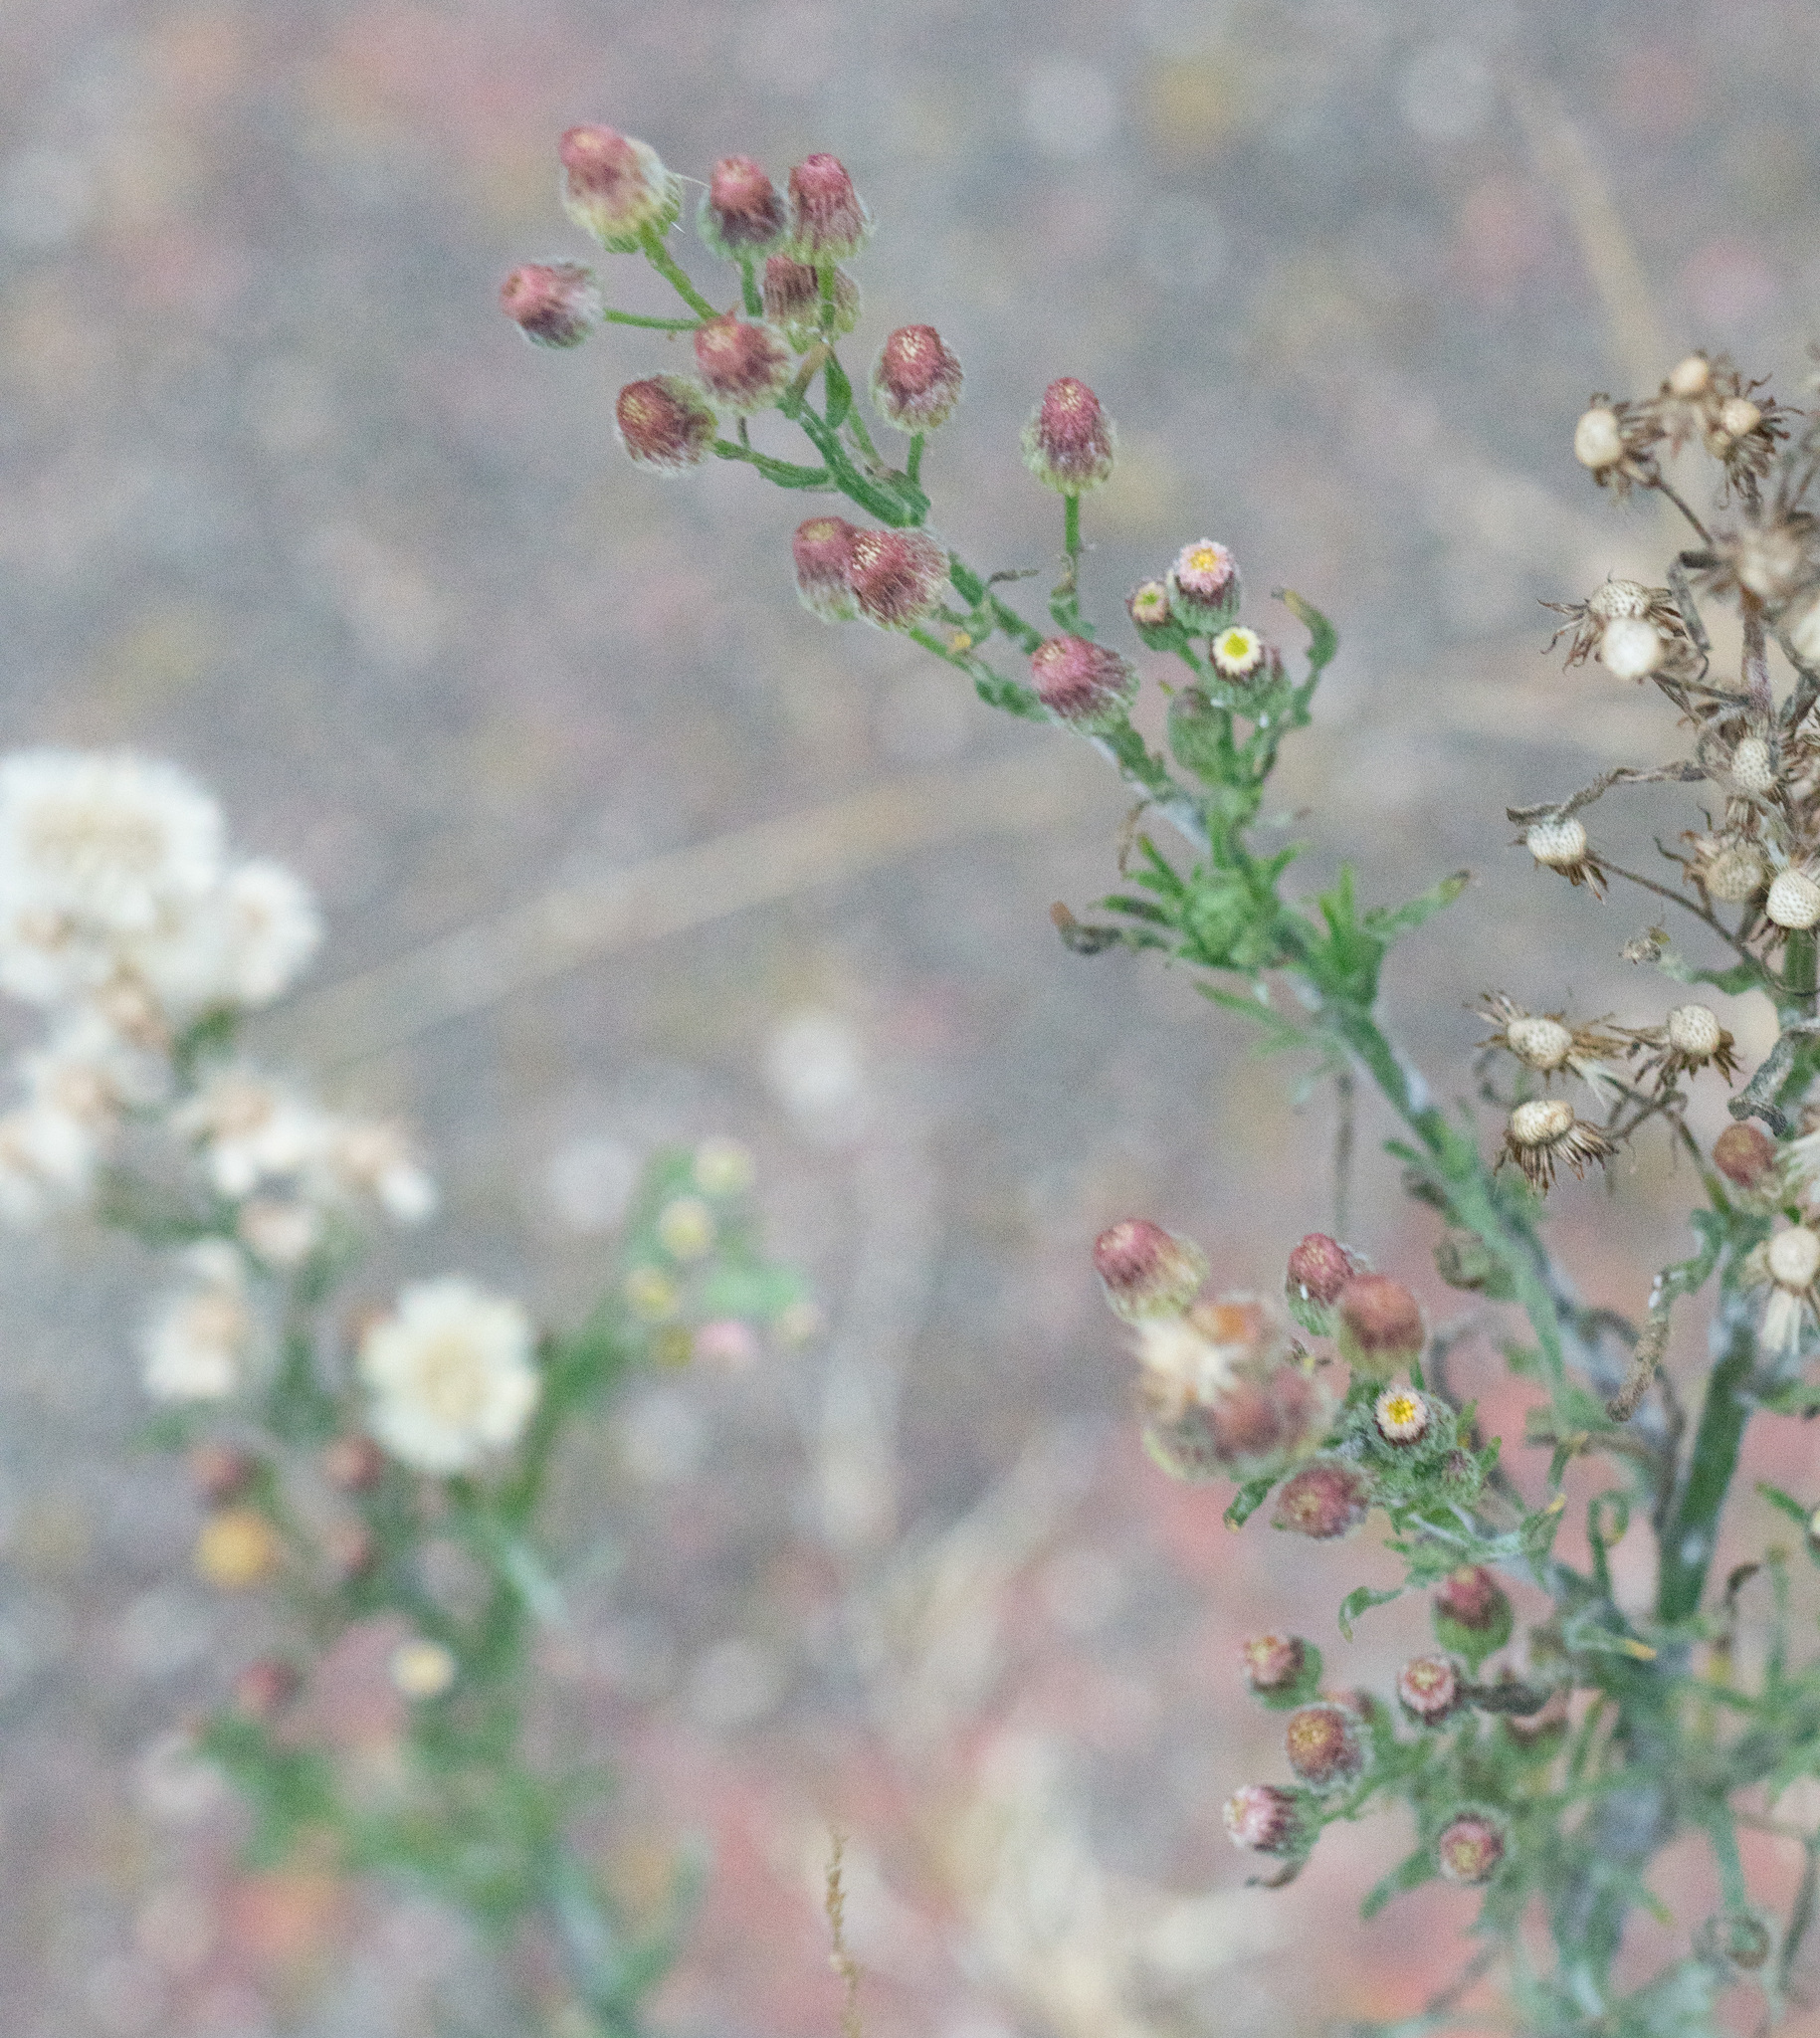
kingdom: Plantae
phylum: Tracheophyta
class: Magnoliopsida
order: Asterales
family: Asteraceae
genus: Erigeron
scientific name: Erigeron bonariensis
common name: Argentine fleabane
